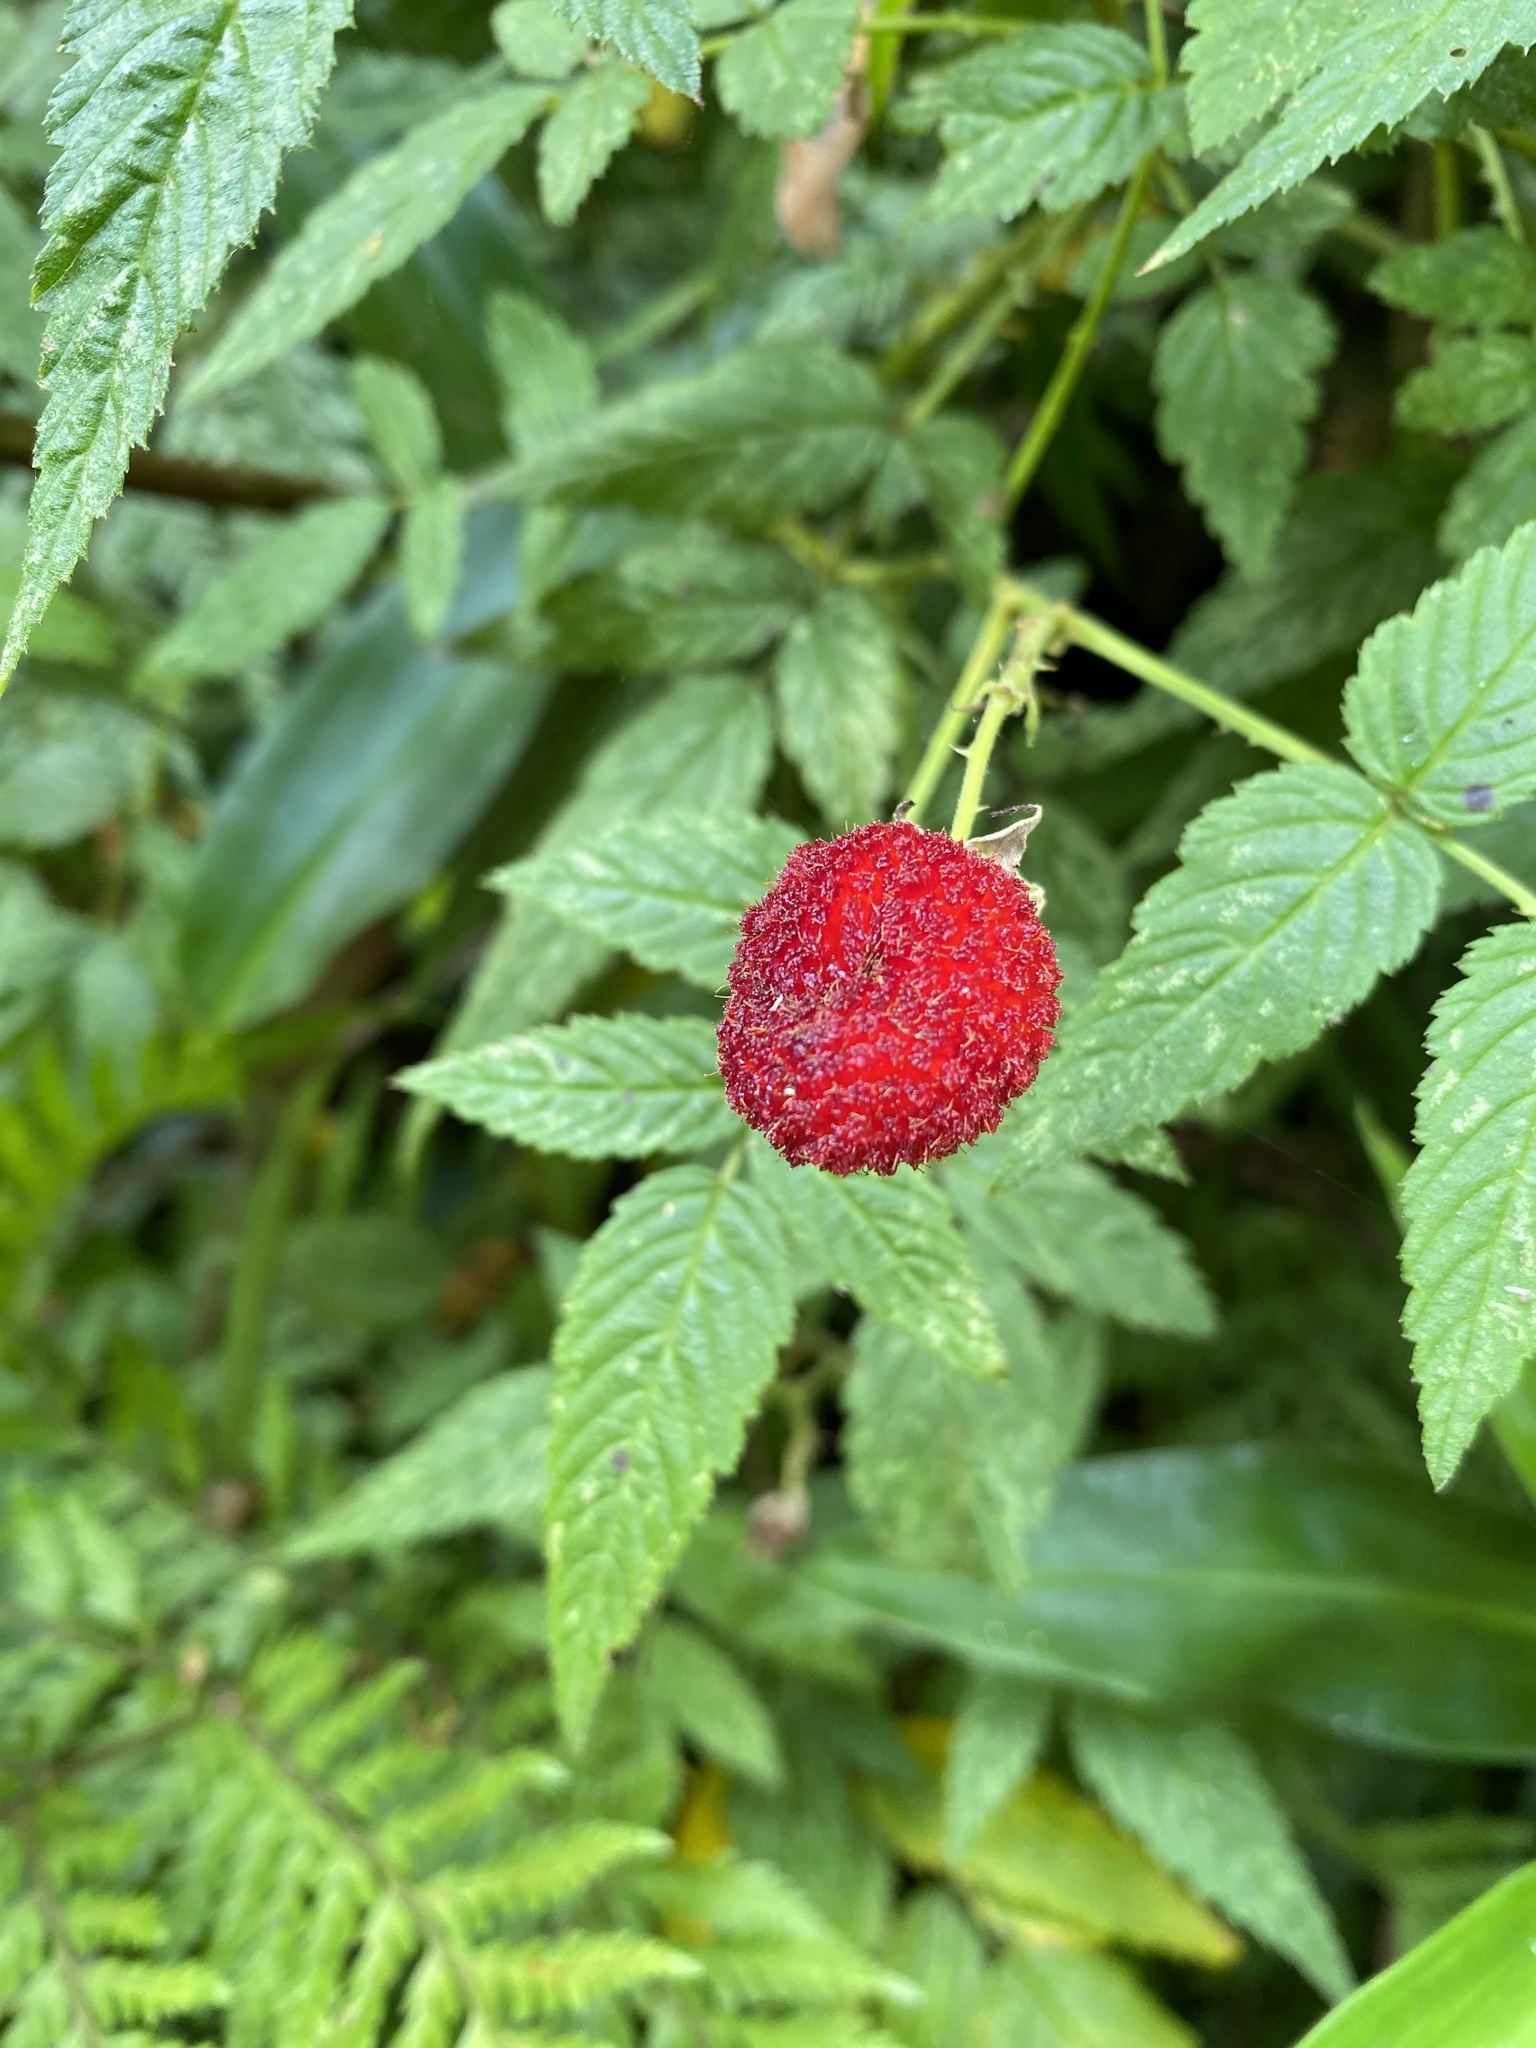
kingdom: Plantae
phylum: Tracheophyta
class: Magnoliopsida
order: Rosales
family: Rosaceae
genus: Rubus
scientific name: Rubus rosifolius
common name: Roseleaf raspberry
